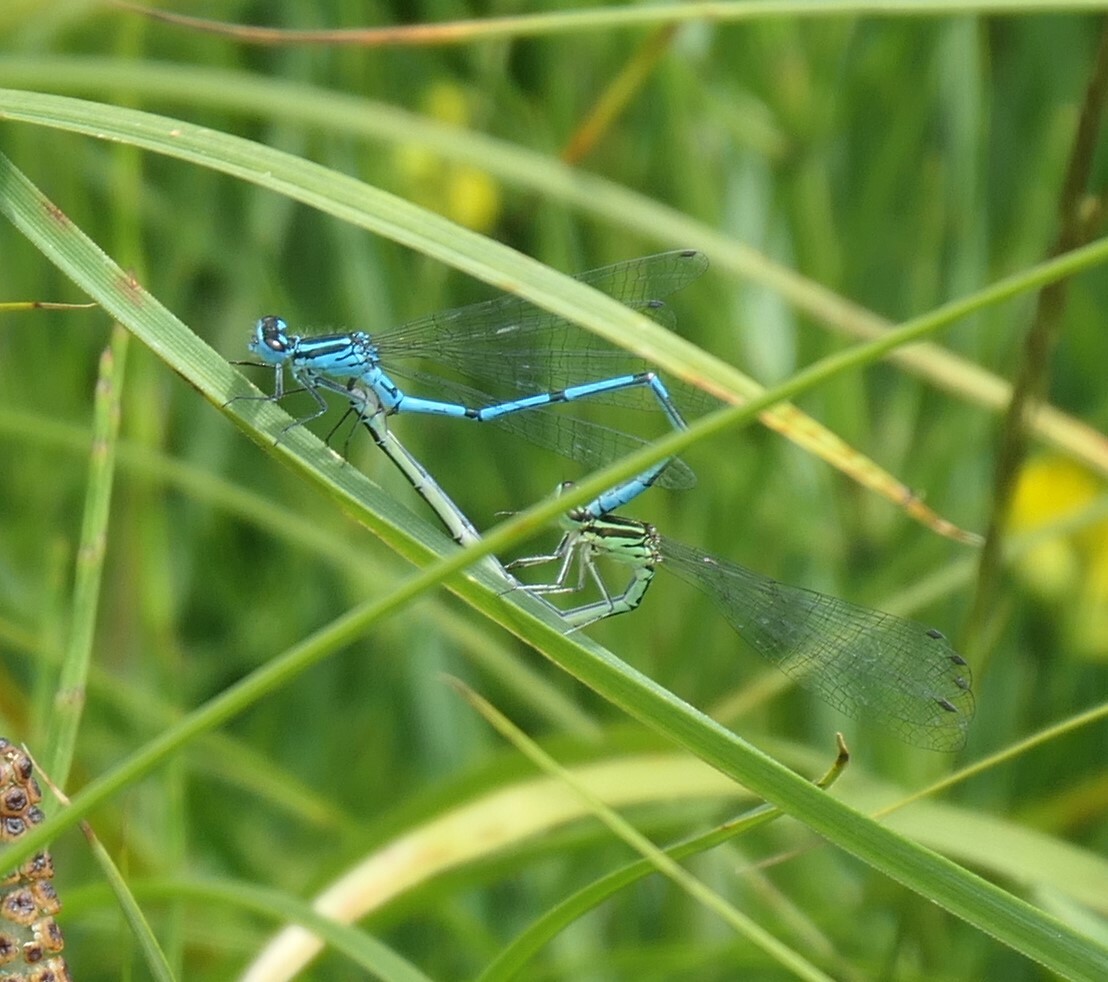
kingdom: Animalia
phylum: Arthropoda
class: Insecta
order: Odonata
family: Coenagrionidae
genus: Coenagrion
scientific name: Coenagrion puella
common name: Azure damselfly
